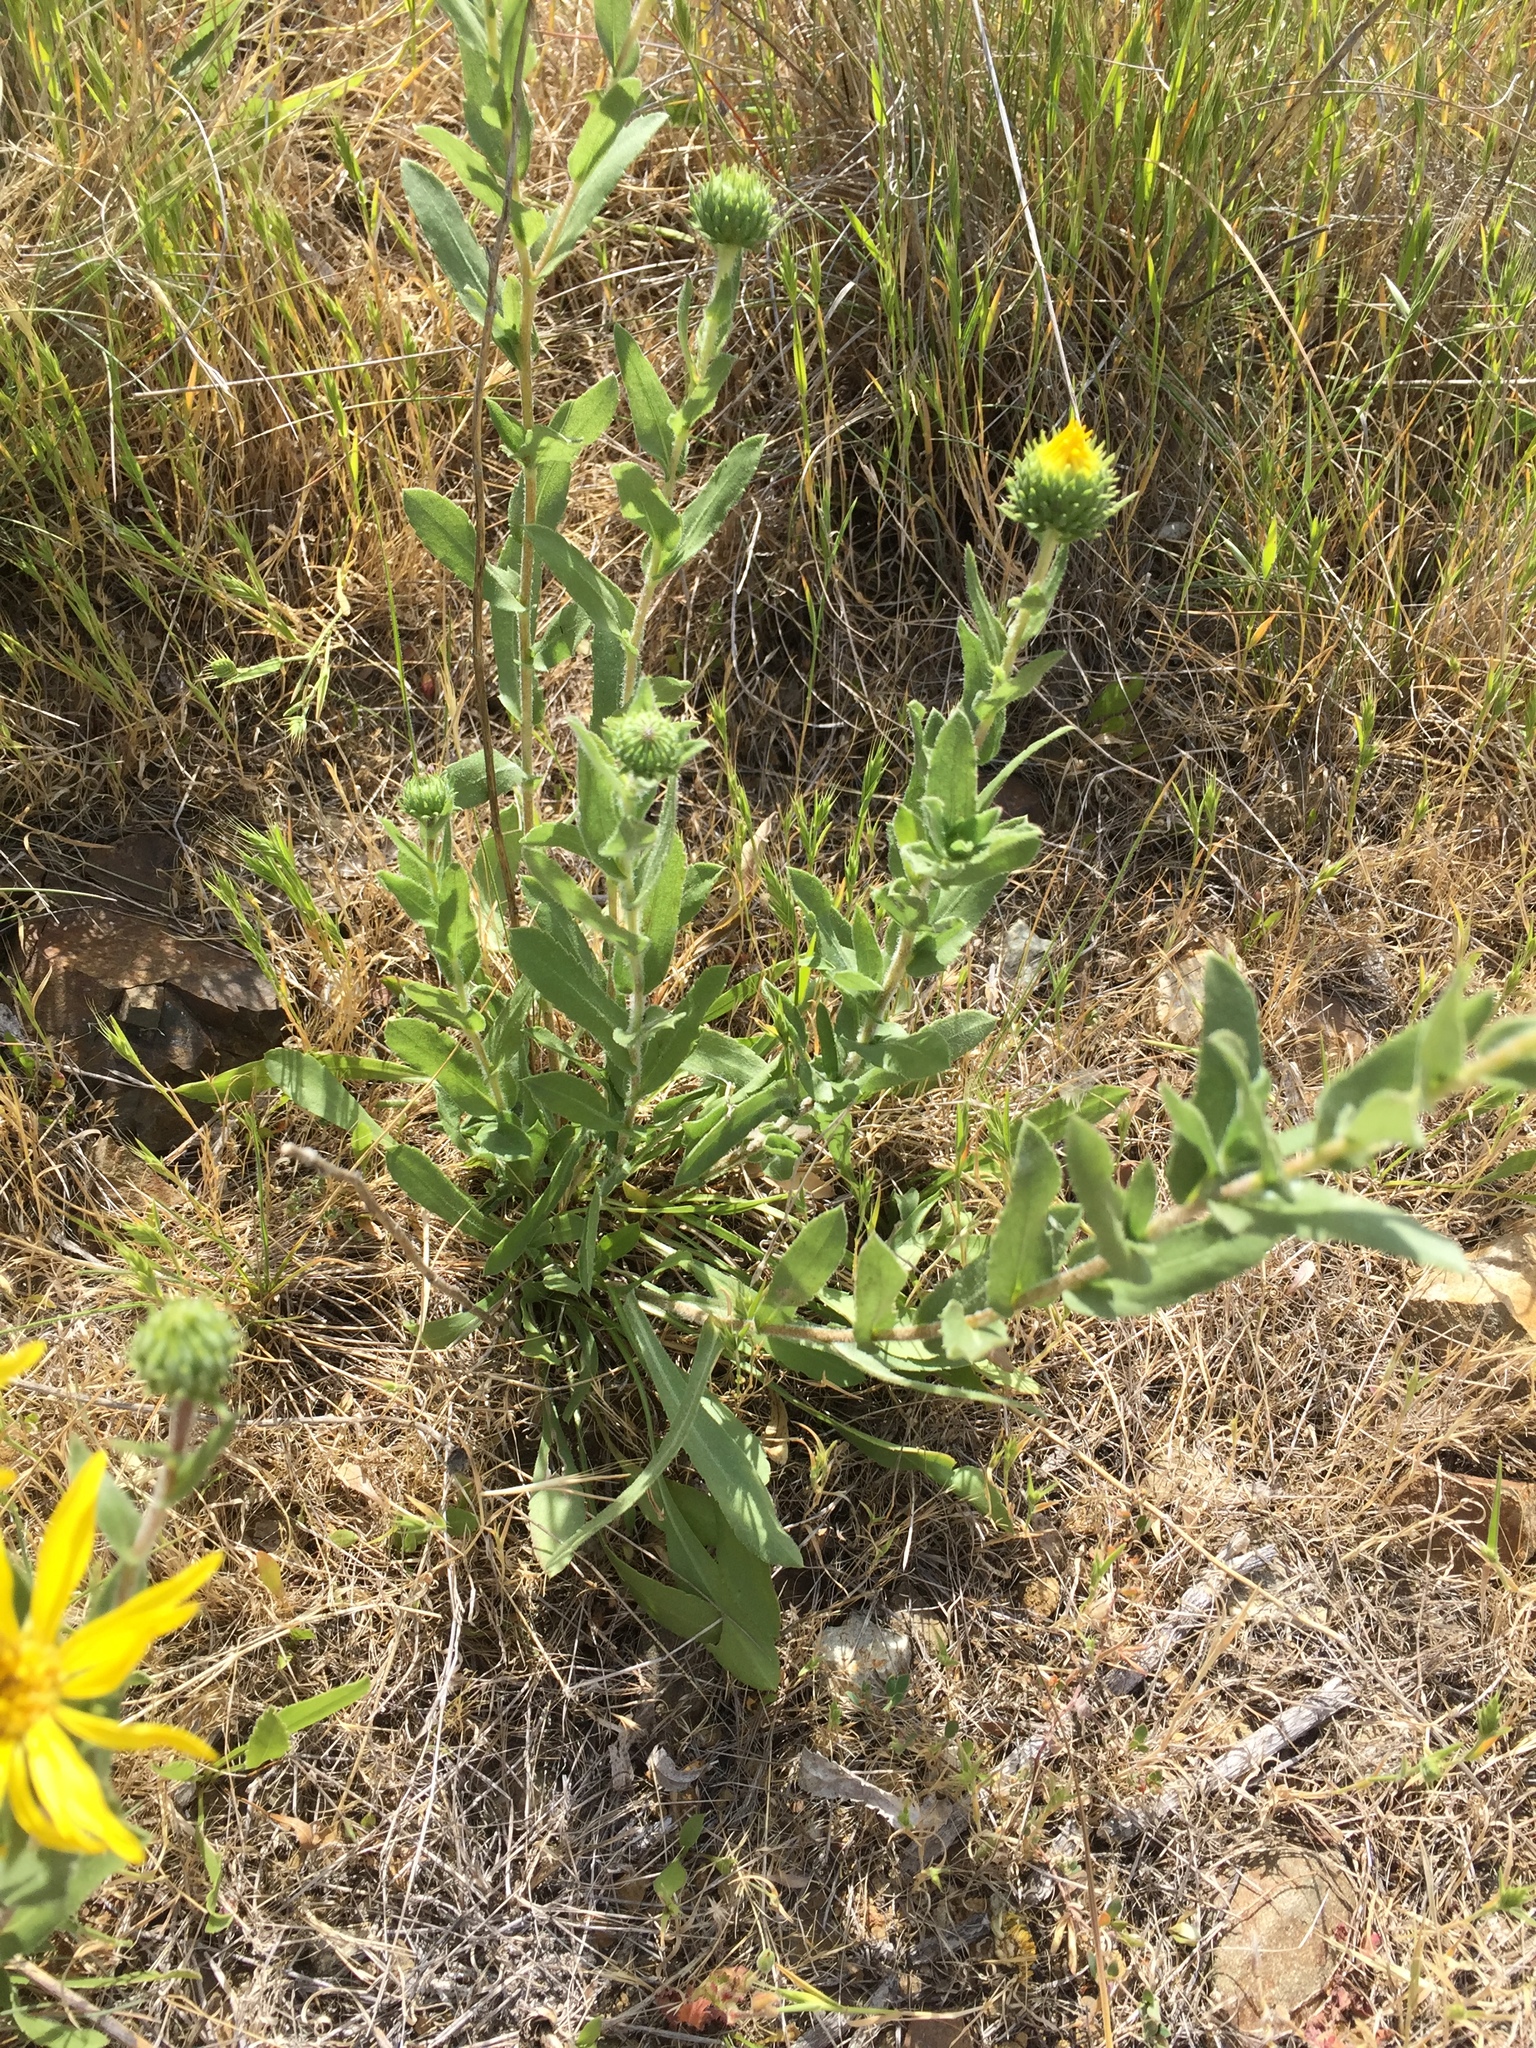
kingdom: Plantae
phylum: Tracheophyta
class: Magnoliopsida
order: Asterales
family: Asteraceae
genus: Grindelia
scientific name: Grindelia hirsutula
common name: Hairy gumweed
